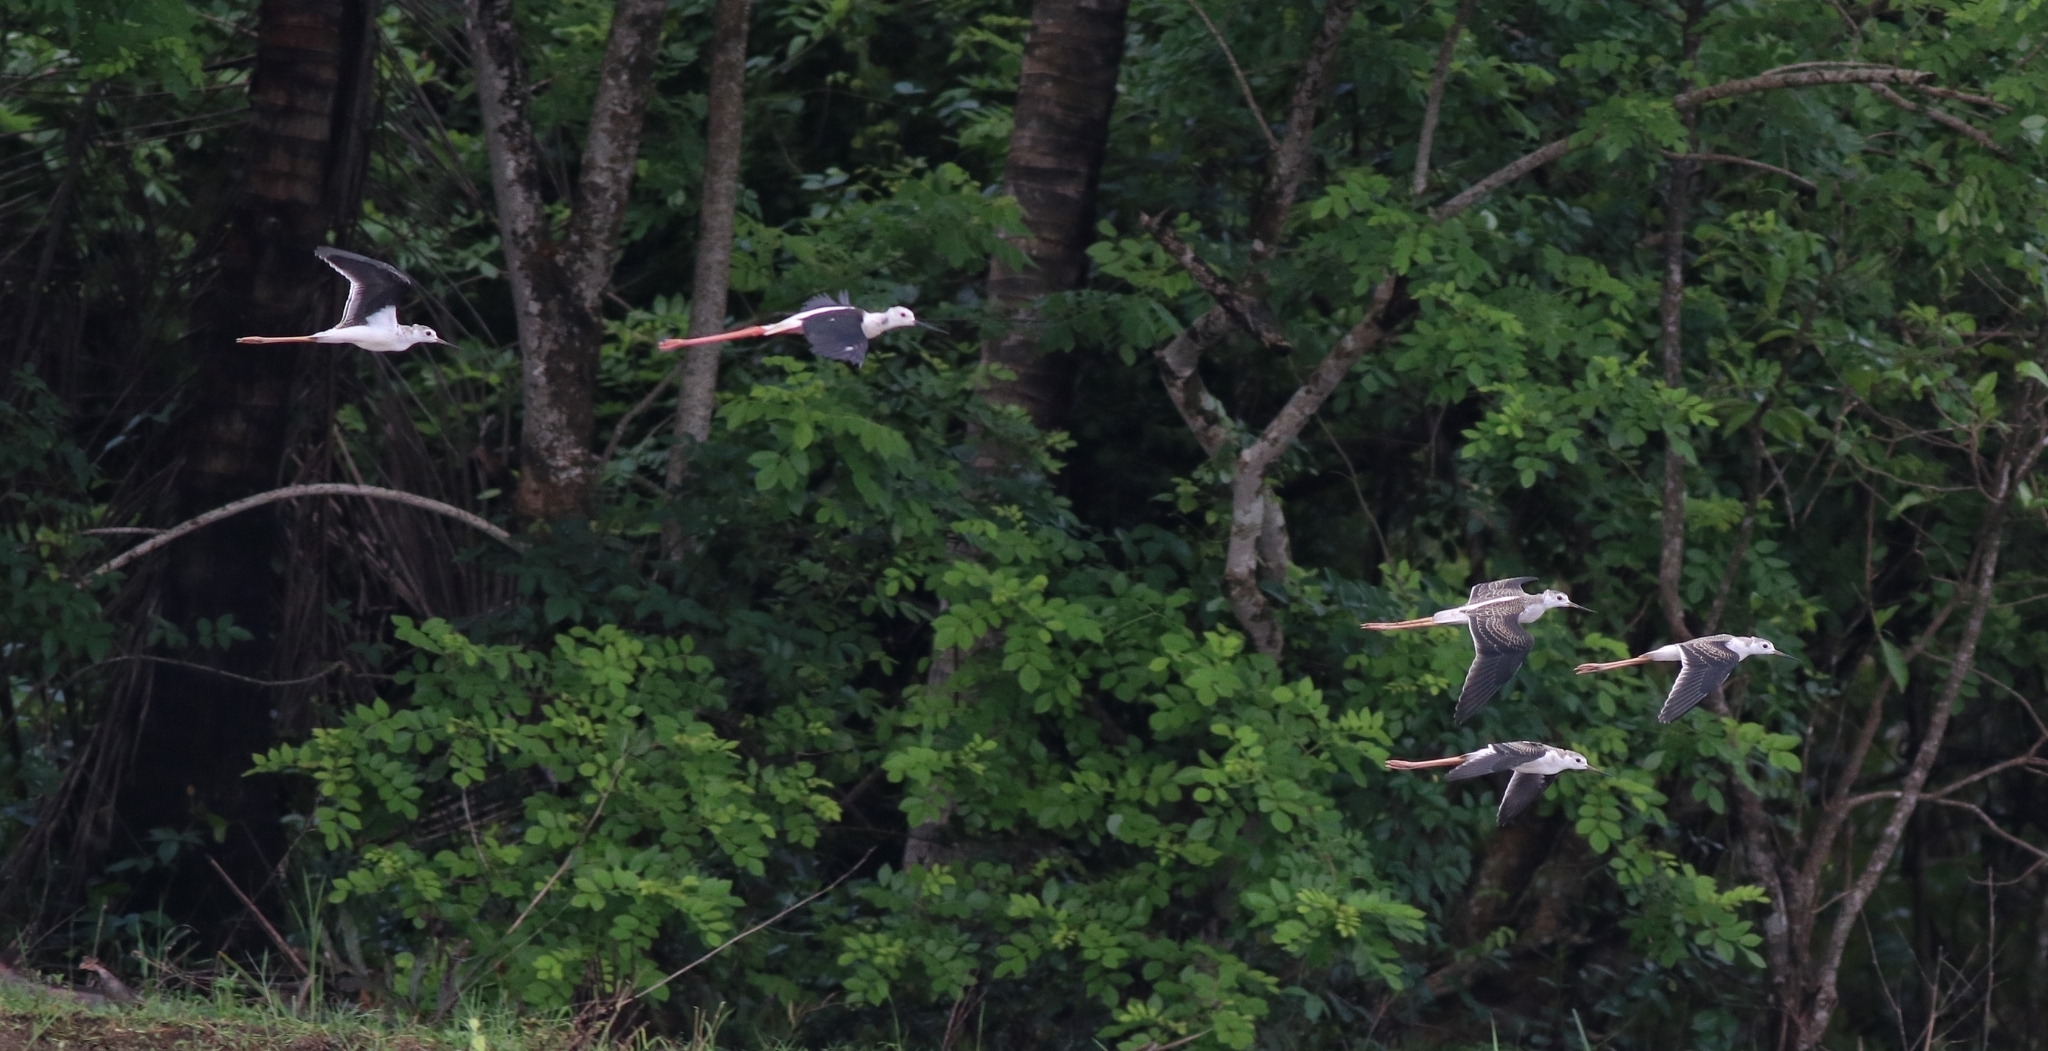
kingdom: Animalia
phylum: Chordata
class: Aves
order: Charadriiformes
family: Recurvirostridae
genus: Himantopus
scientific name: Himantopus himantopus
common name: Black-winged stilt
